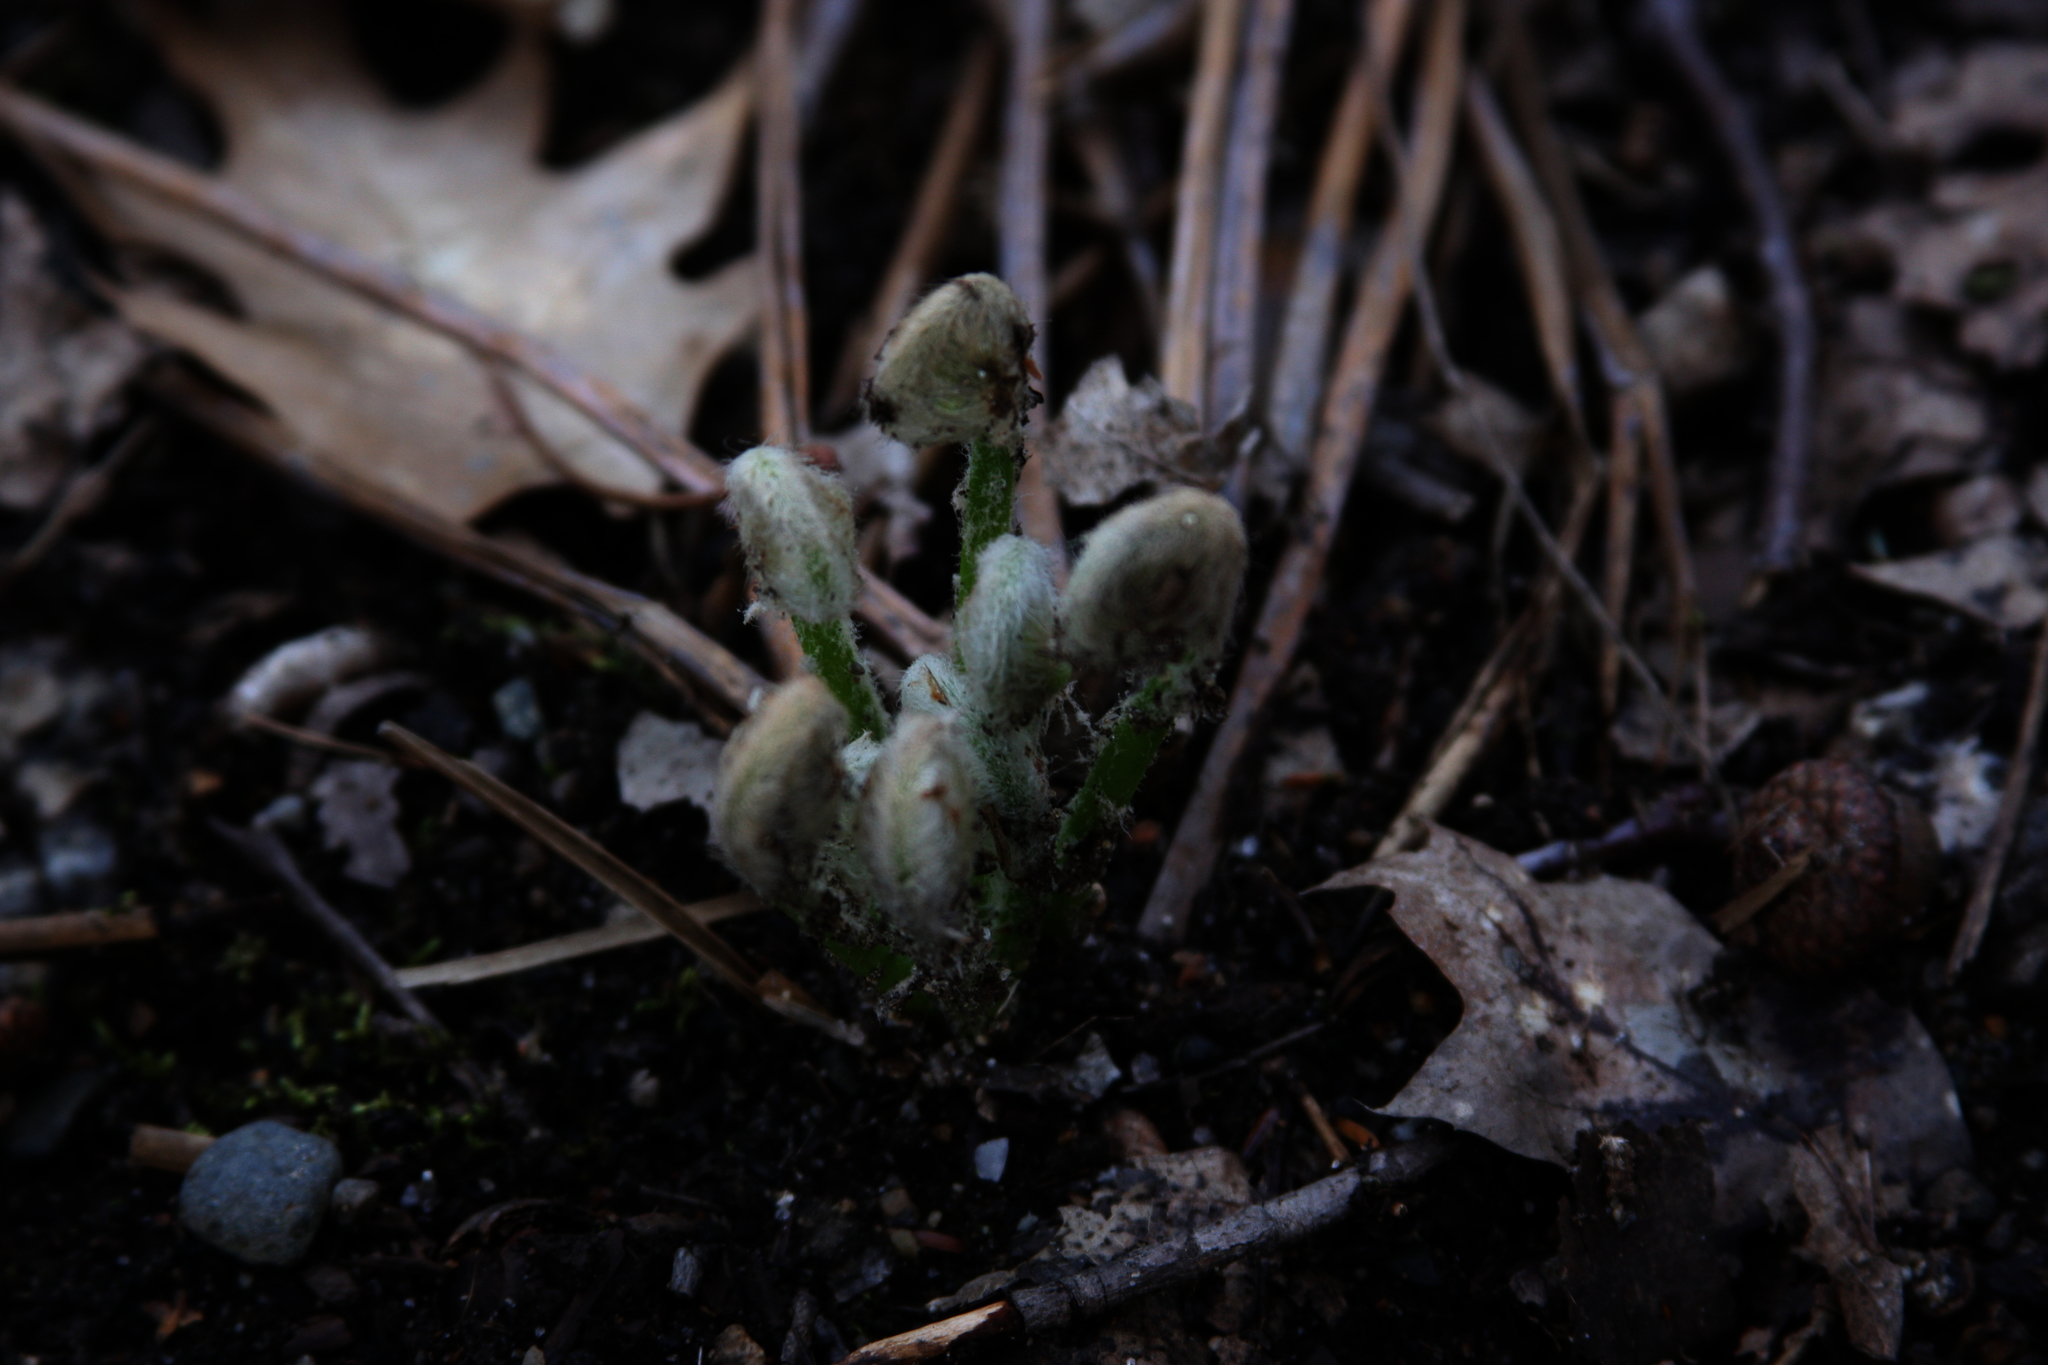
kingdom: Plantae
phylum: Tracheophyta
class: Polypodiopsida
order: Osmundales
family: Osmundaceae
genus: Claytosmunda
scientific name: Claytosmunda claytoniana
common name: Clayton's fern
